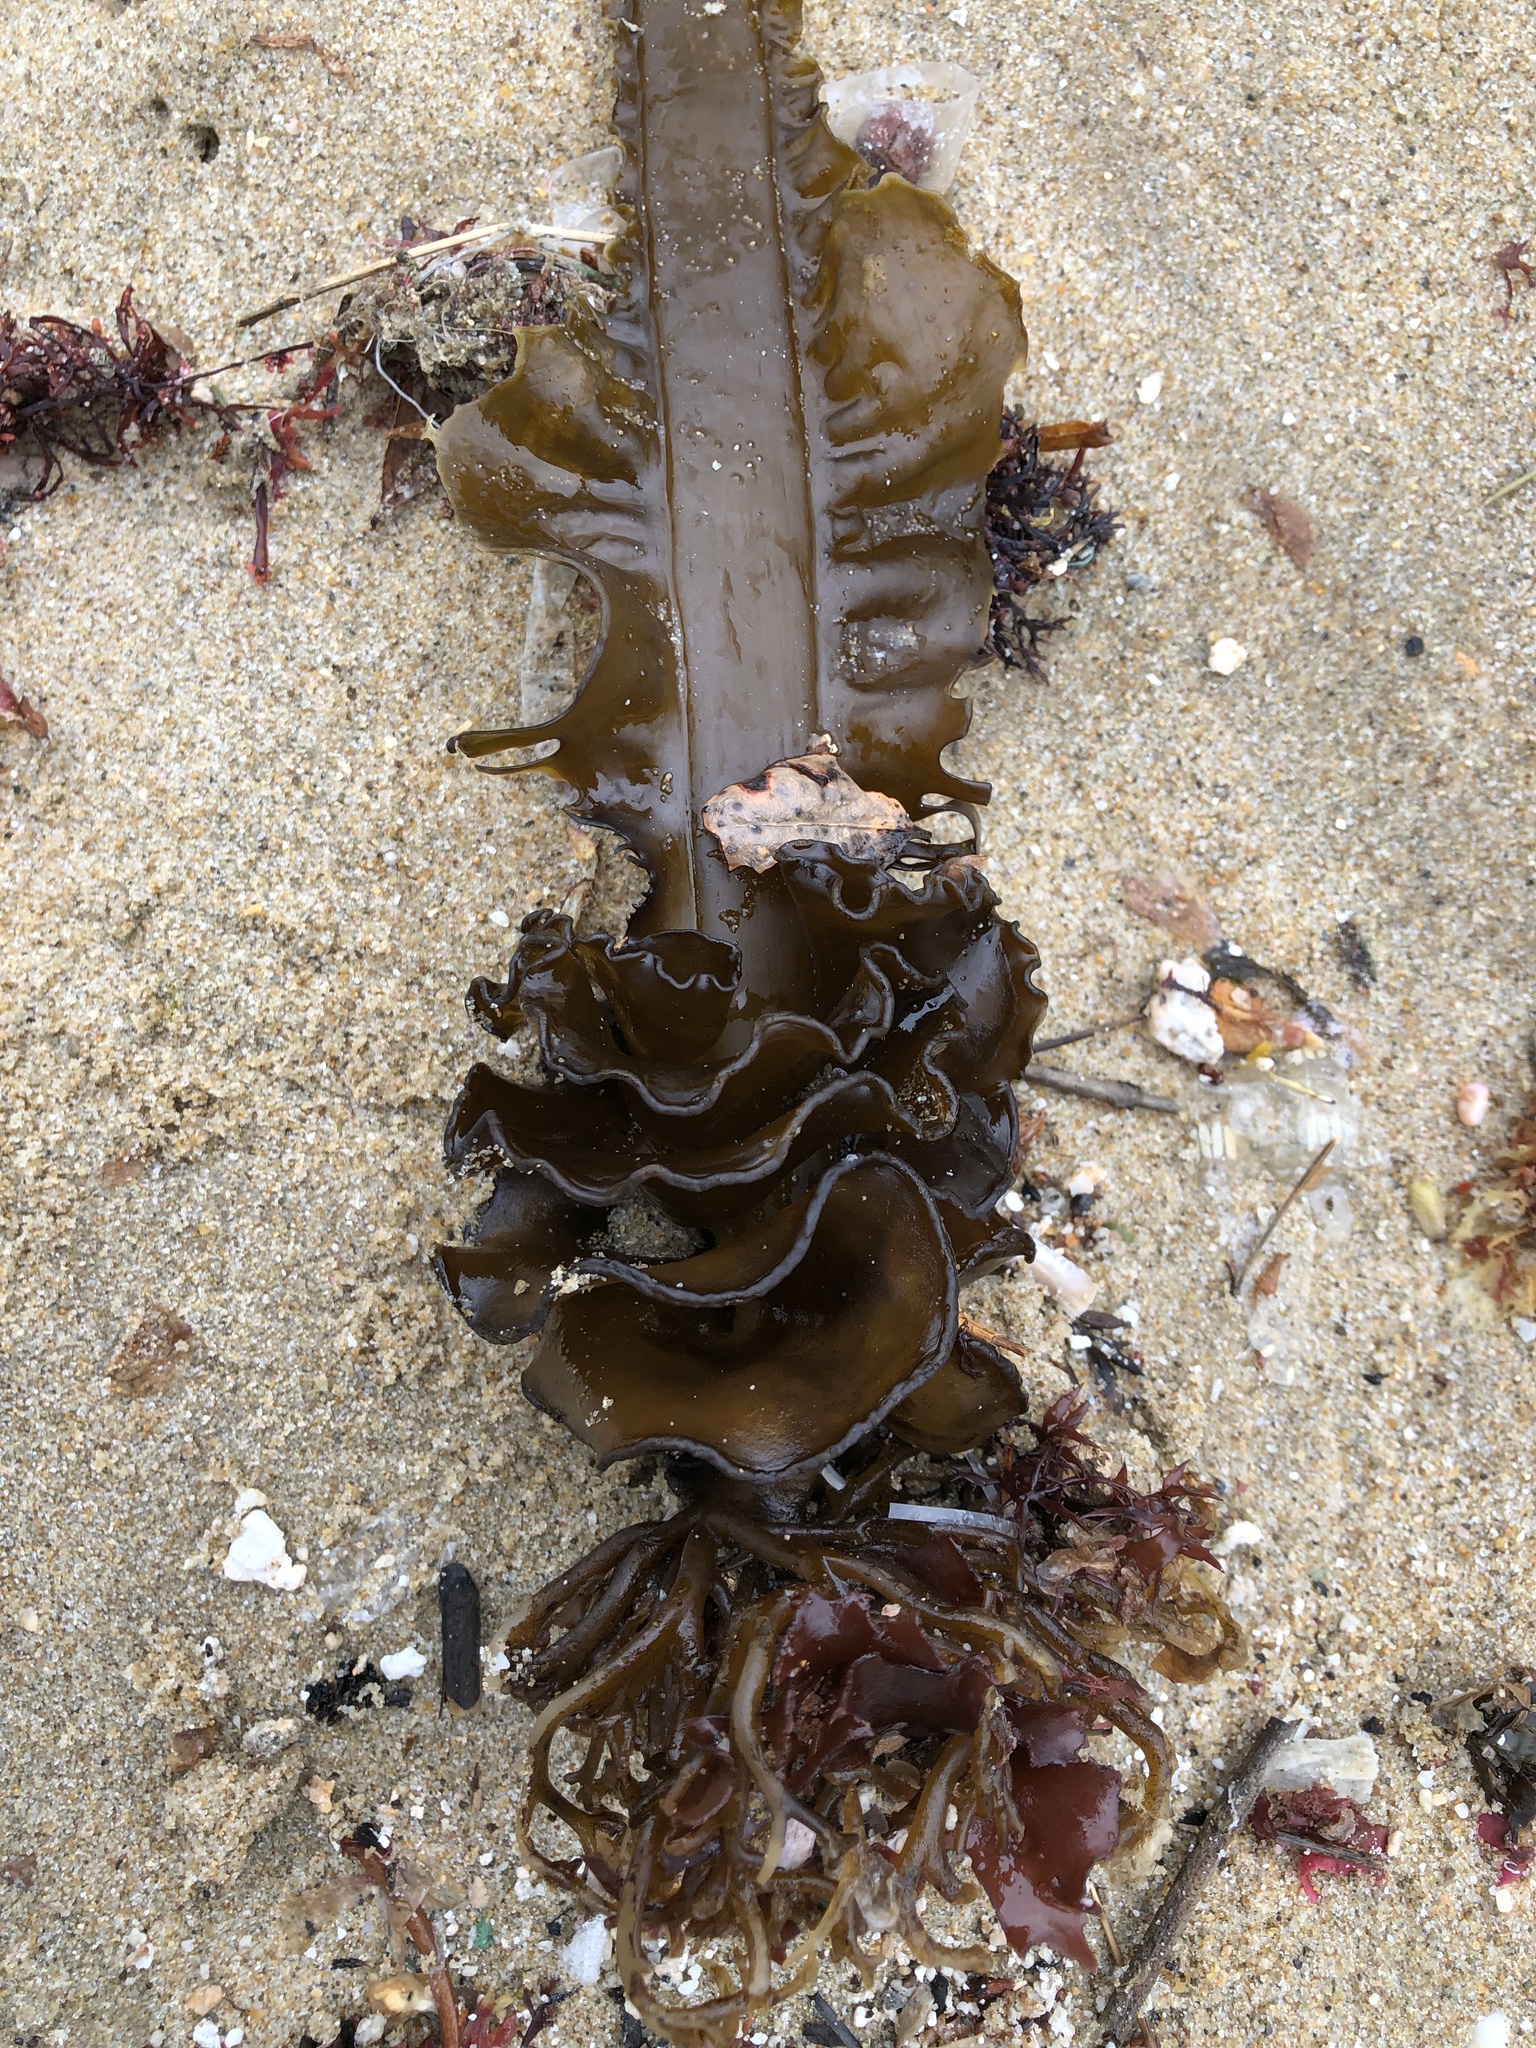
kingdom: Chromista
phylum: Ochrophyta
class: Phaeophyceae
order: Laminariales
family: Alariaceae
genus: Undaria
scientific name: Undaria pinnatifida
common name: Asian kelp
